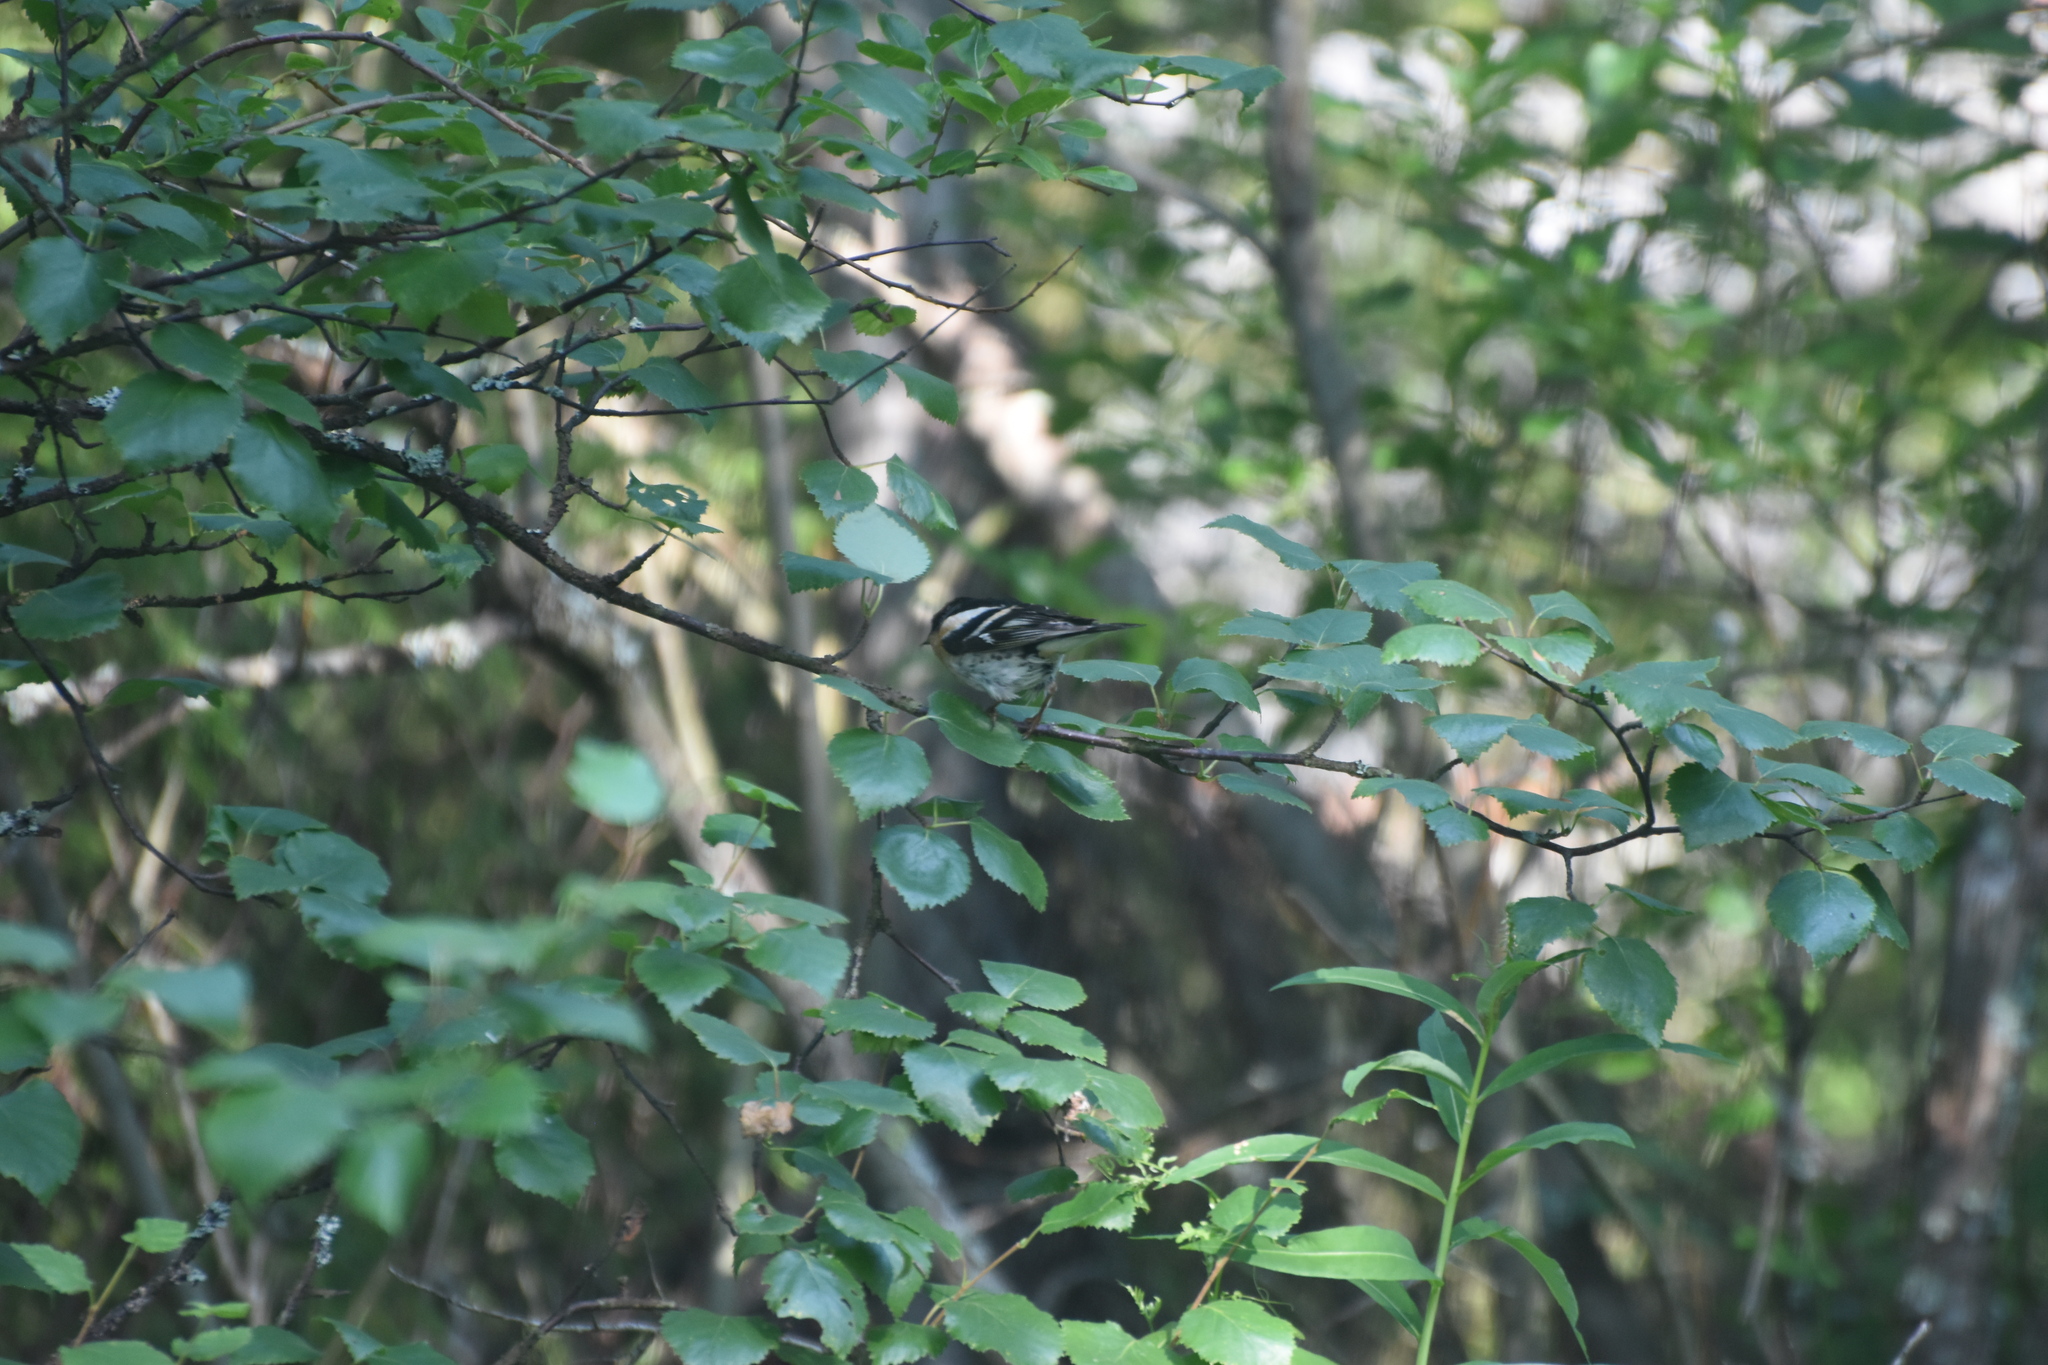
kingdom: Animalia
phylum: Chordata
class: Aves
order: Passeriformes
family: Fringillidae
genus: Fringilla
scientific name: Fringilla montifringilla
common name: Brambling
